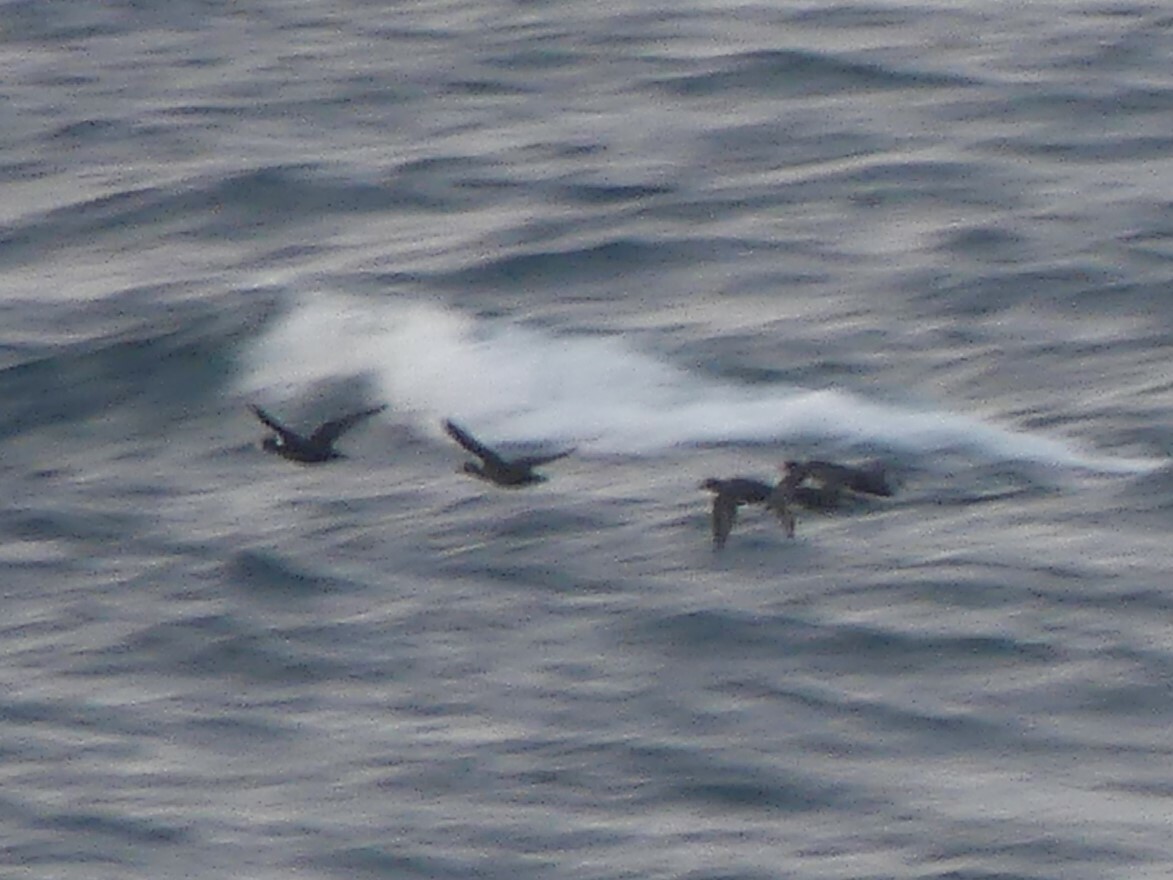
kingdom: Animalia
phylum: Chordata
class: Aves
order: Anseriformes
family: Anatidae
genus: Melanitta
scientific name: Melanitta perspicillata
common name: Surf scoter
